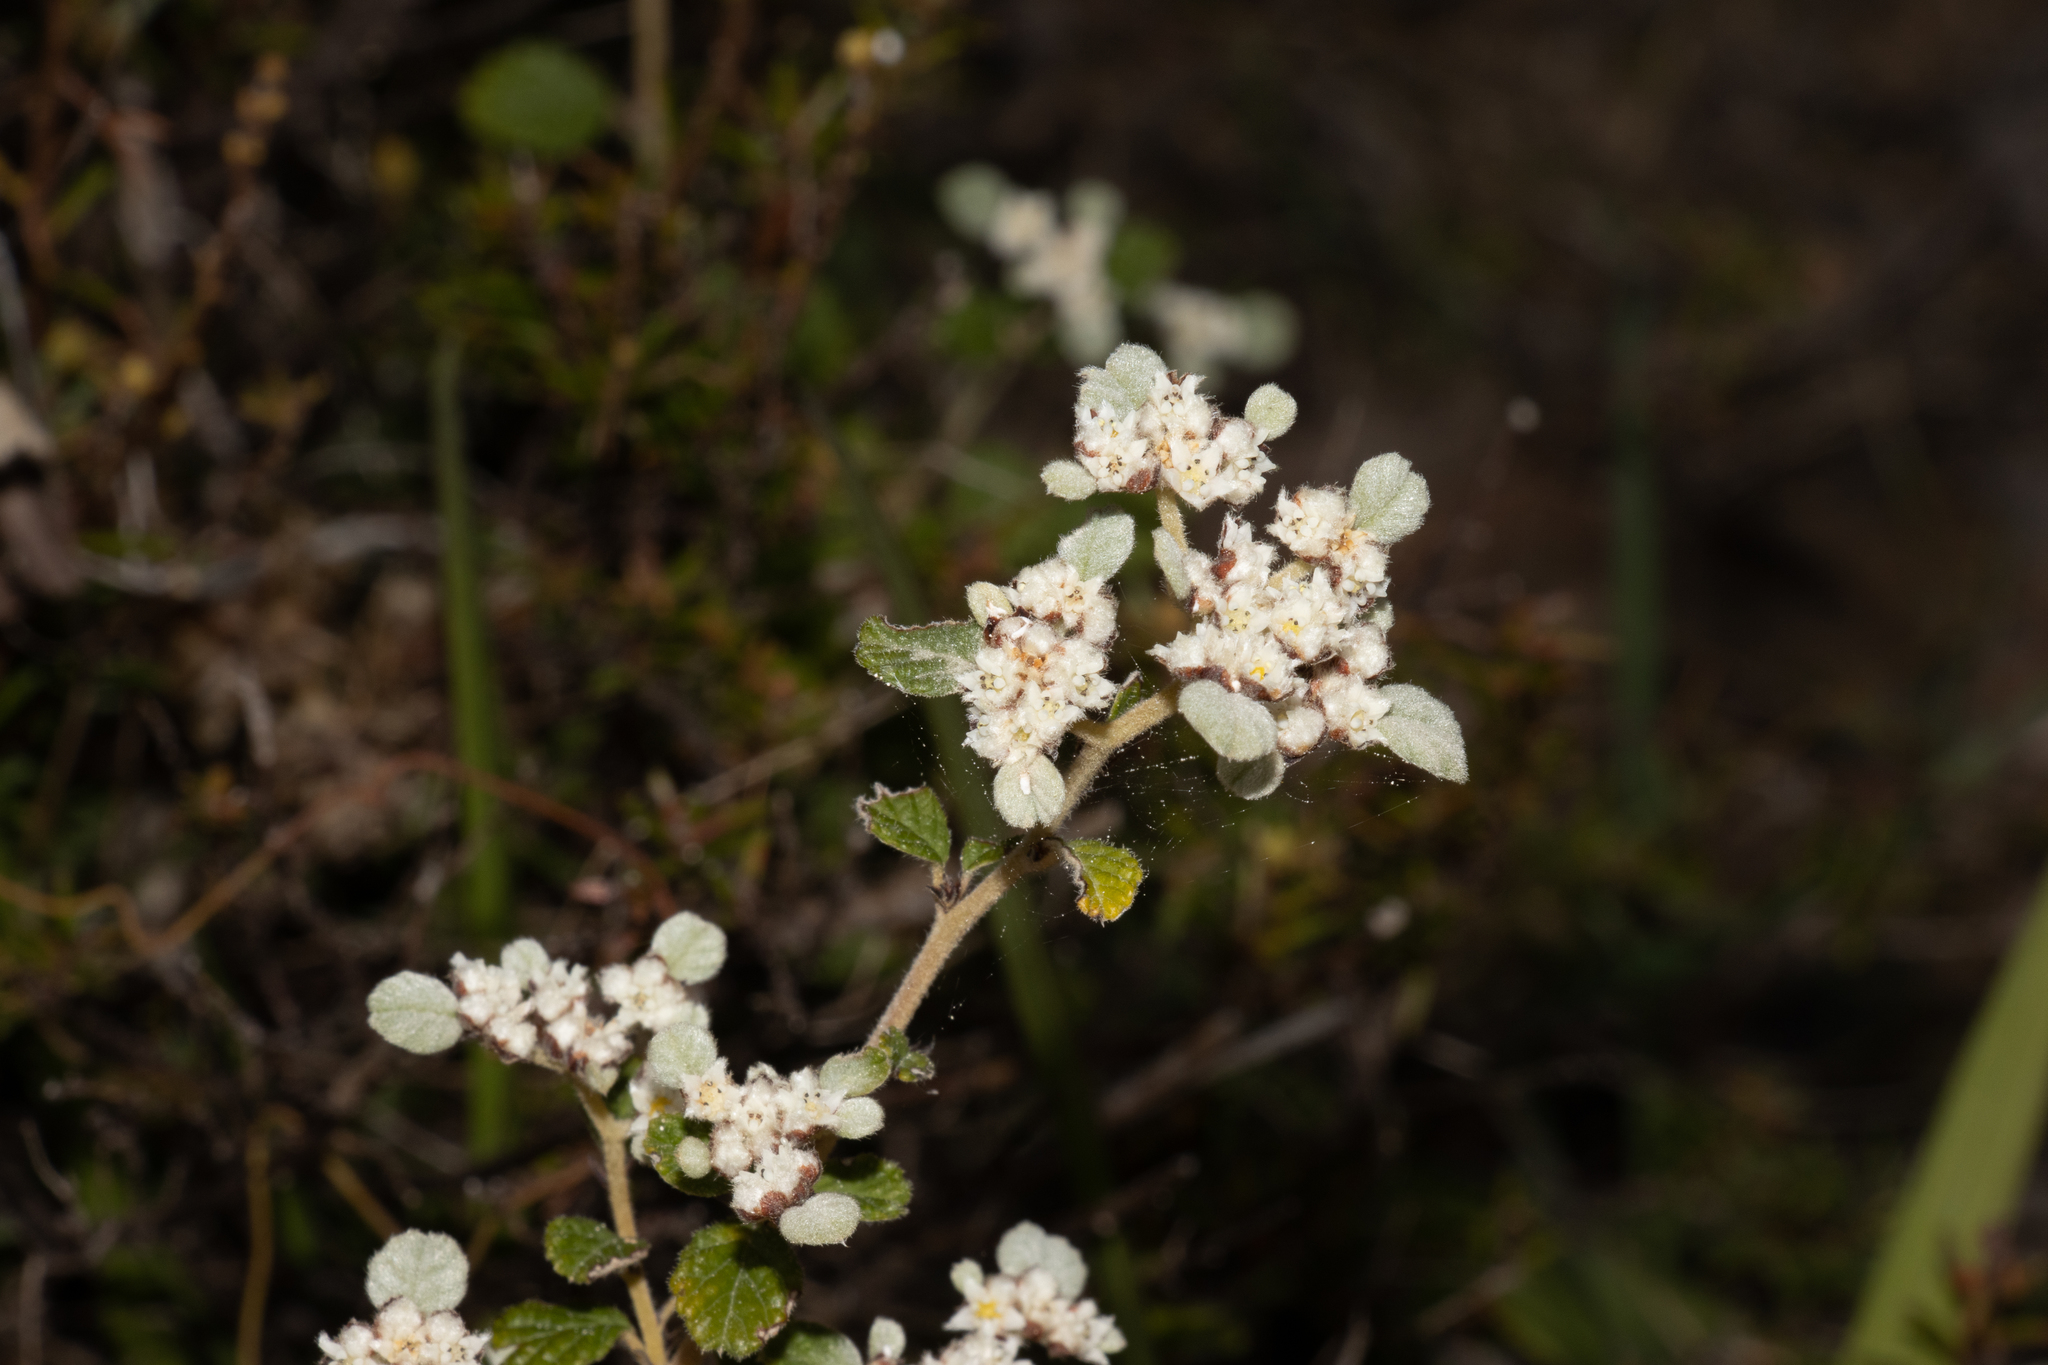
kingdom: Plantae
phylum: Tracheophyta
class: Magnoliopsida
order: Rosales
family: Rhamnaceae
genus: Spyridium
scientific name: Spyridium parvifolium
